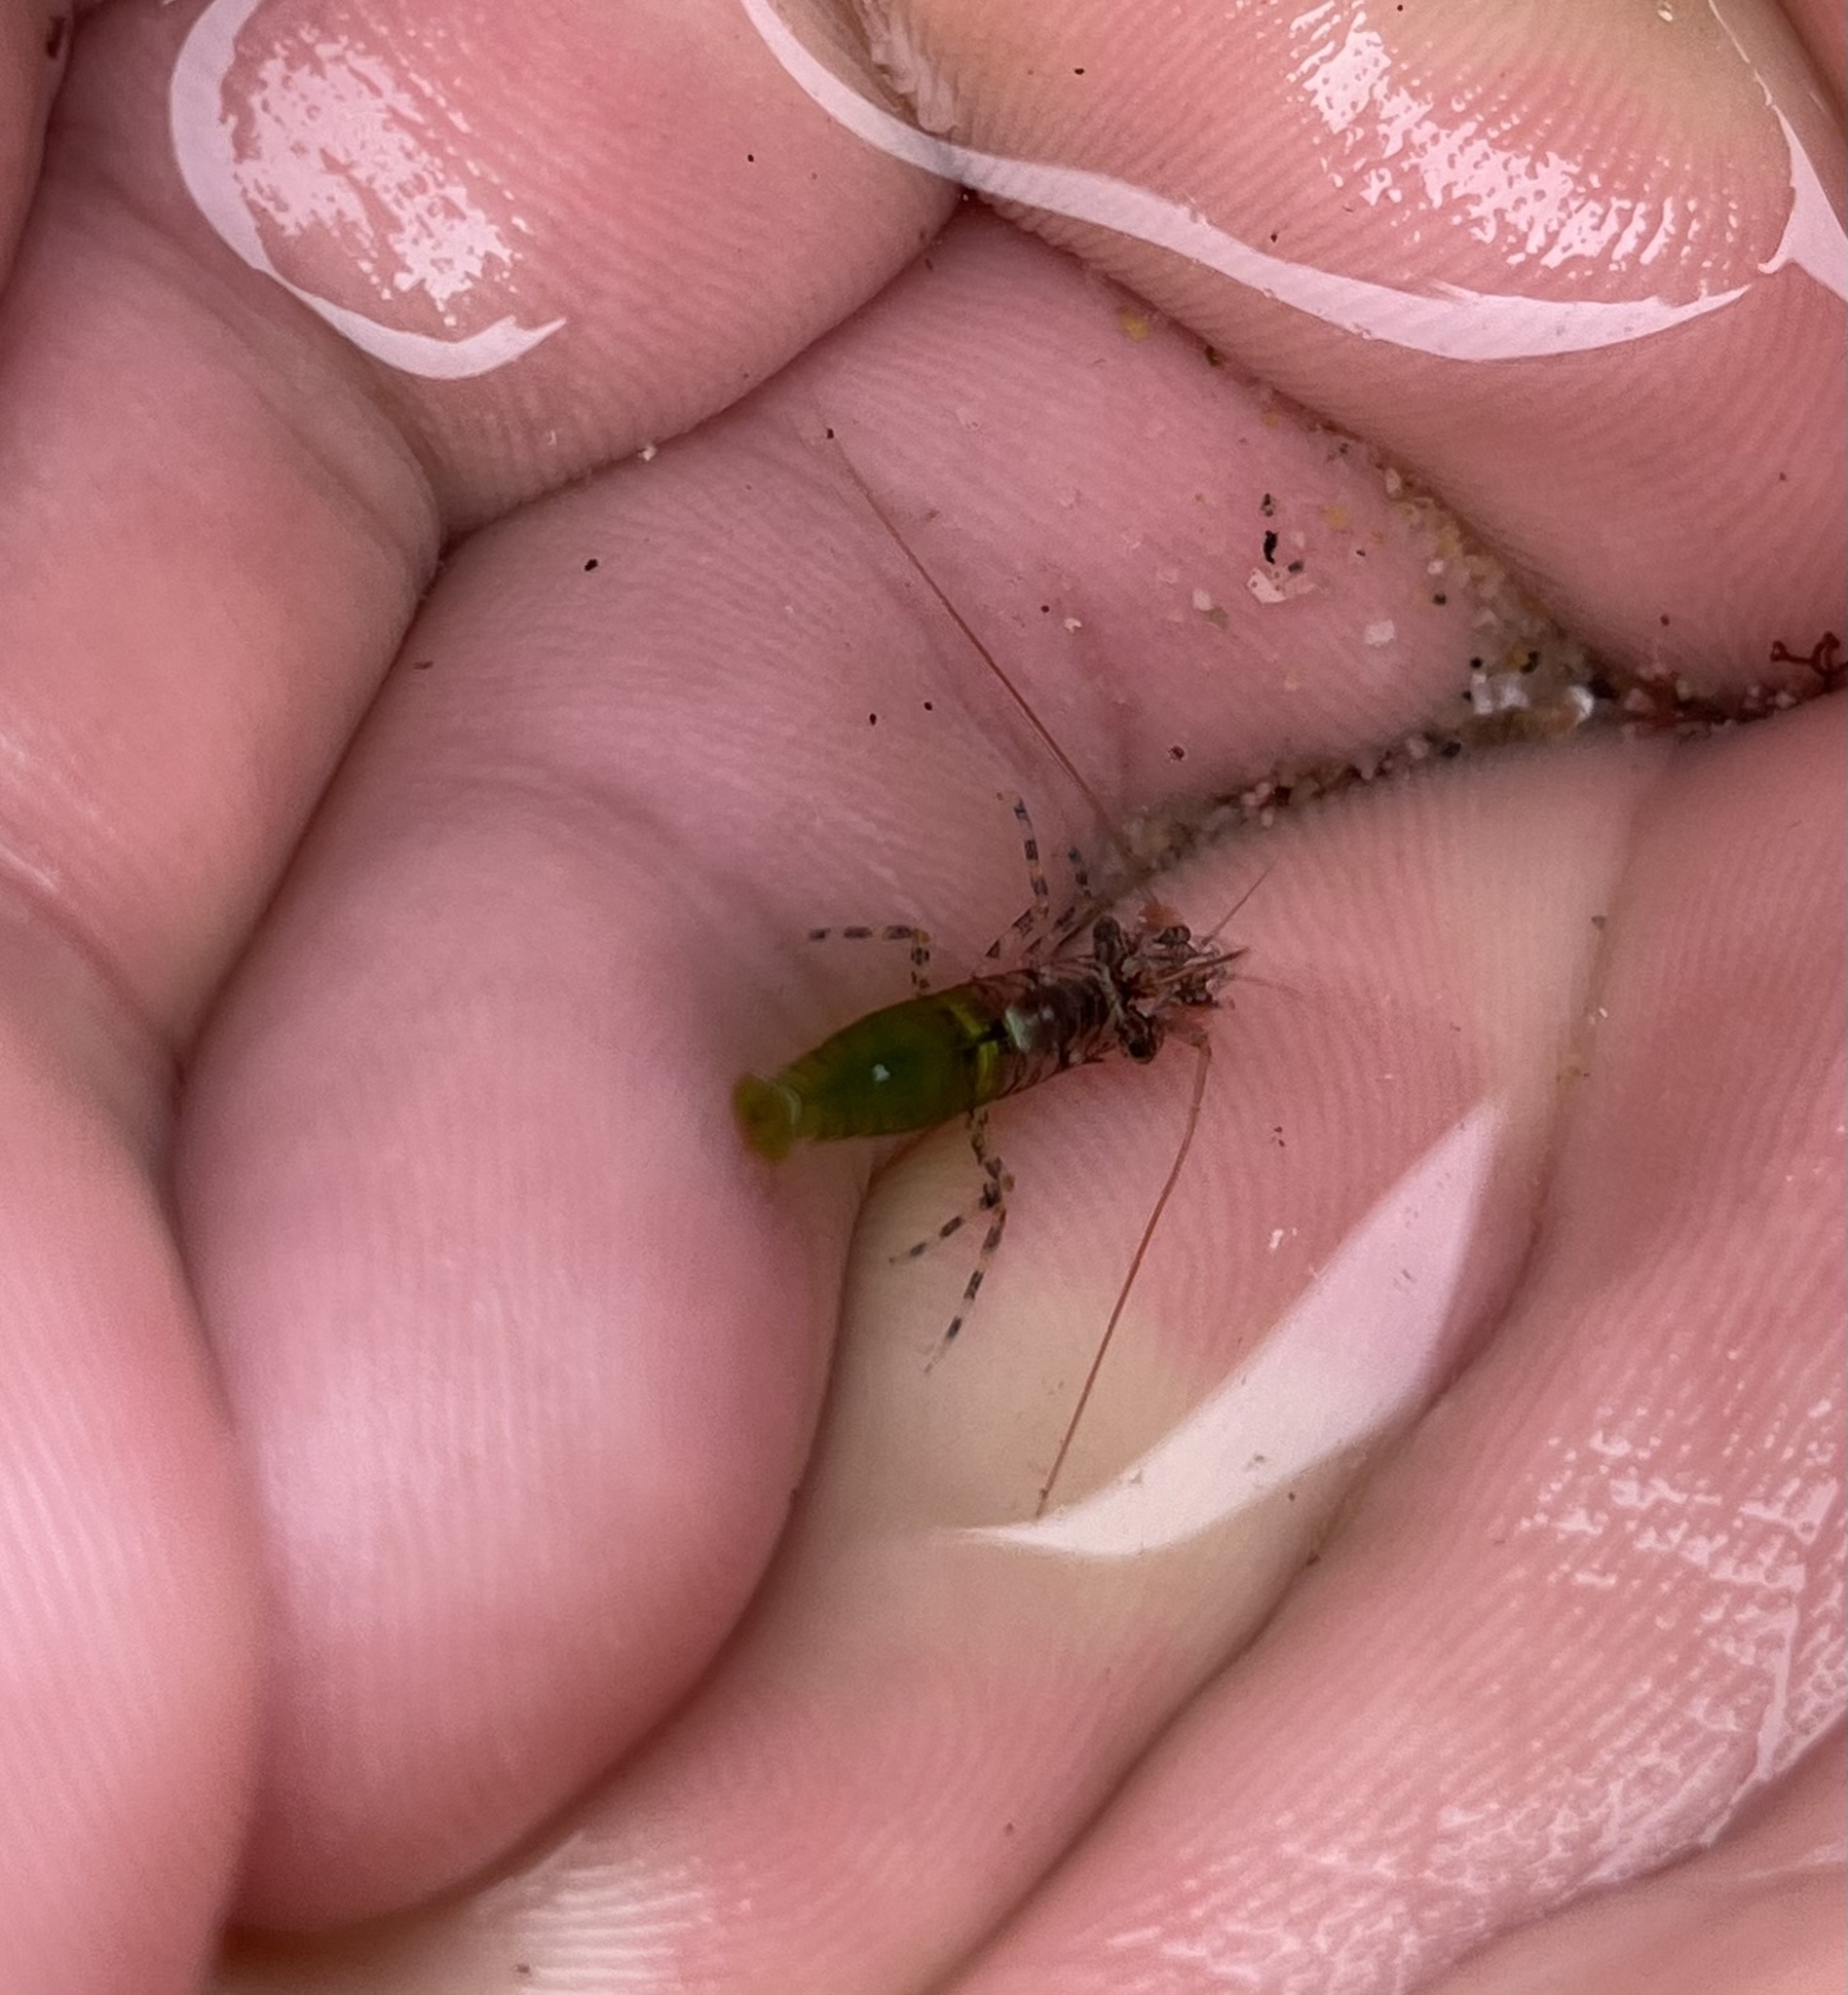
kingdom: Animalia
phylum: Arthropoda
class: Malacostraca
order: Decapoda
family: Thoridae
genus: Heptacarpus
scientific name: Heptacarpus sitchensis
